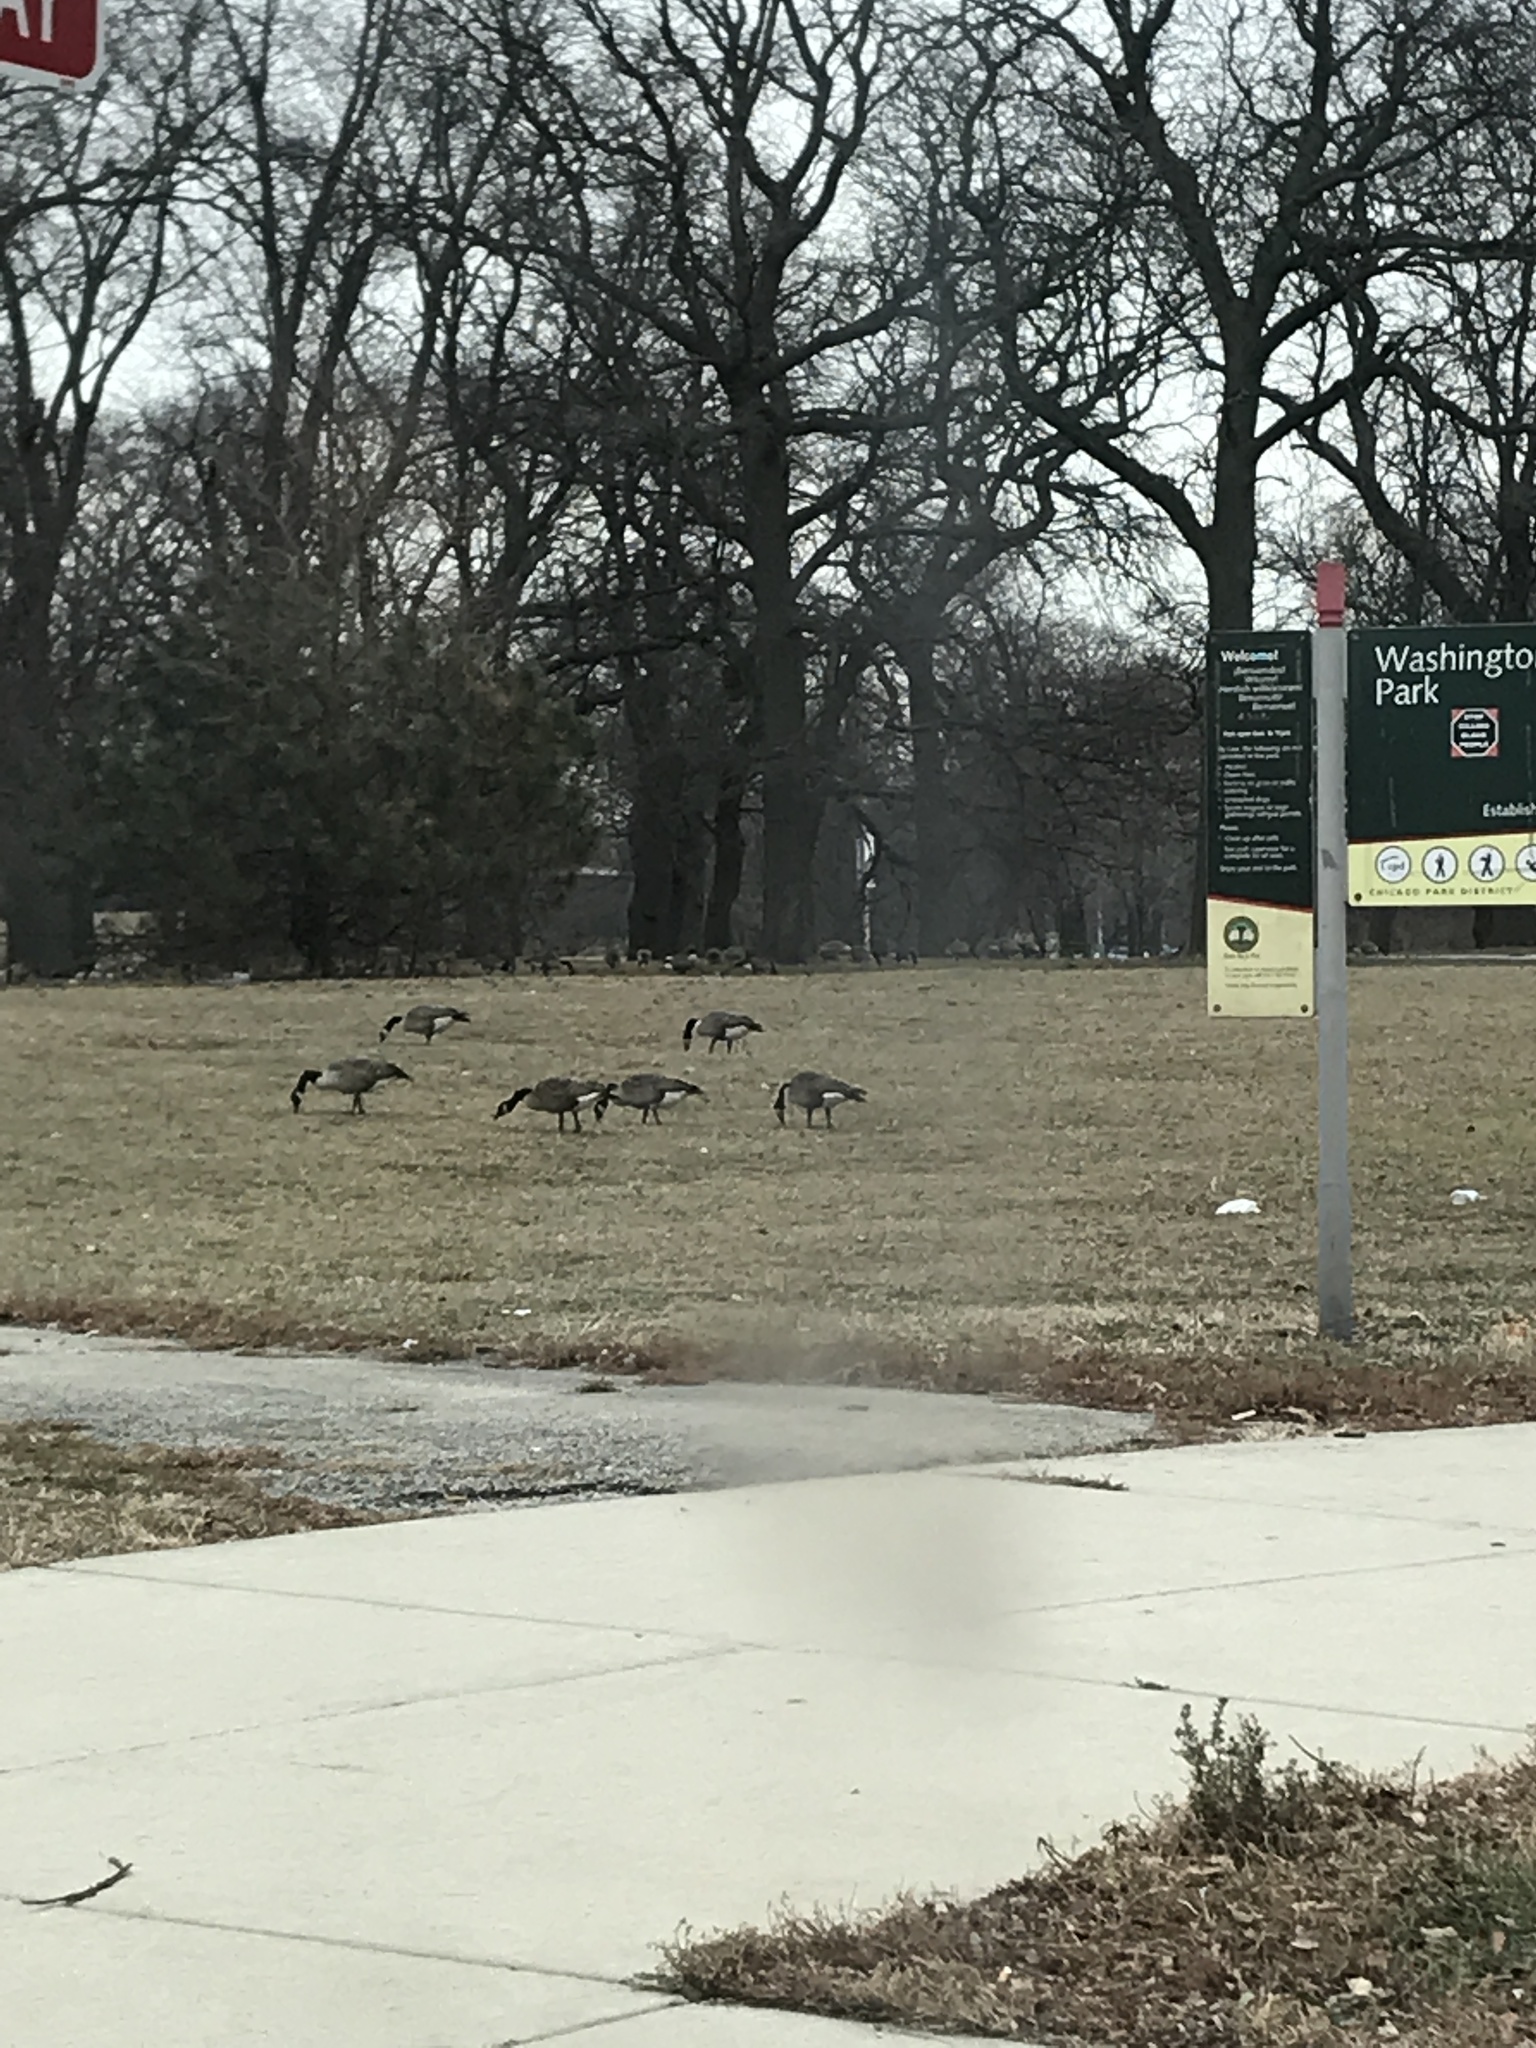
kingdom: Animalia
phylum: Chordata
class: Aves
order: Anseriformes
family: Anatidae
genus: Branta
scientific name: Branta canadensis
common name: Canada goose
